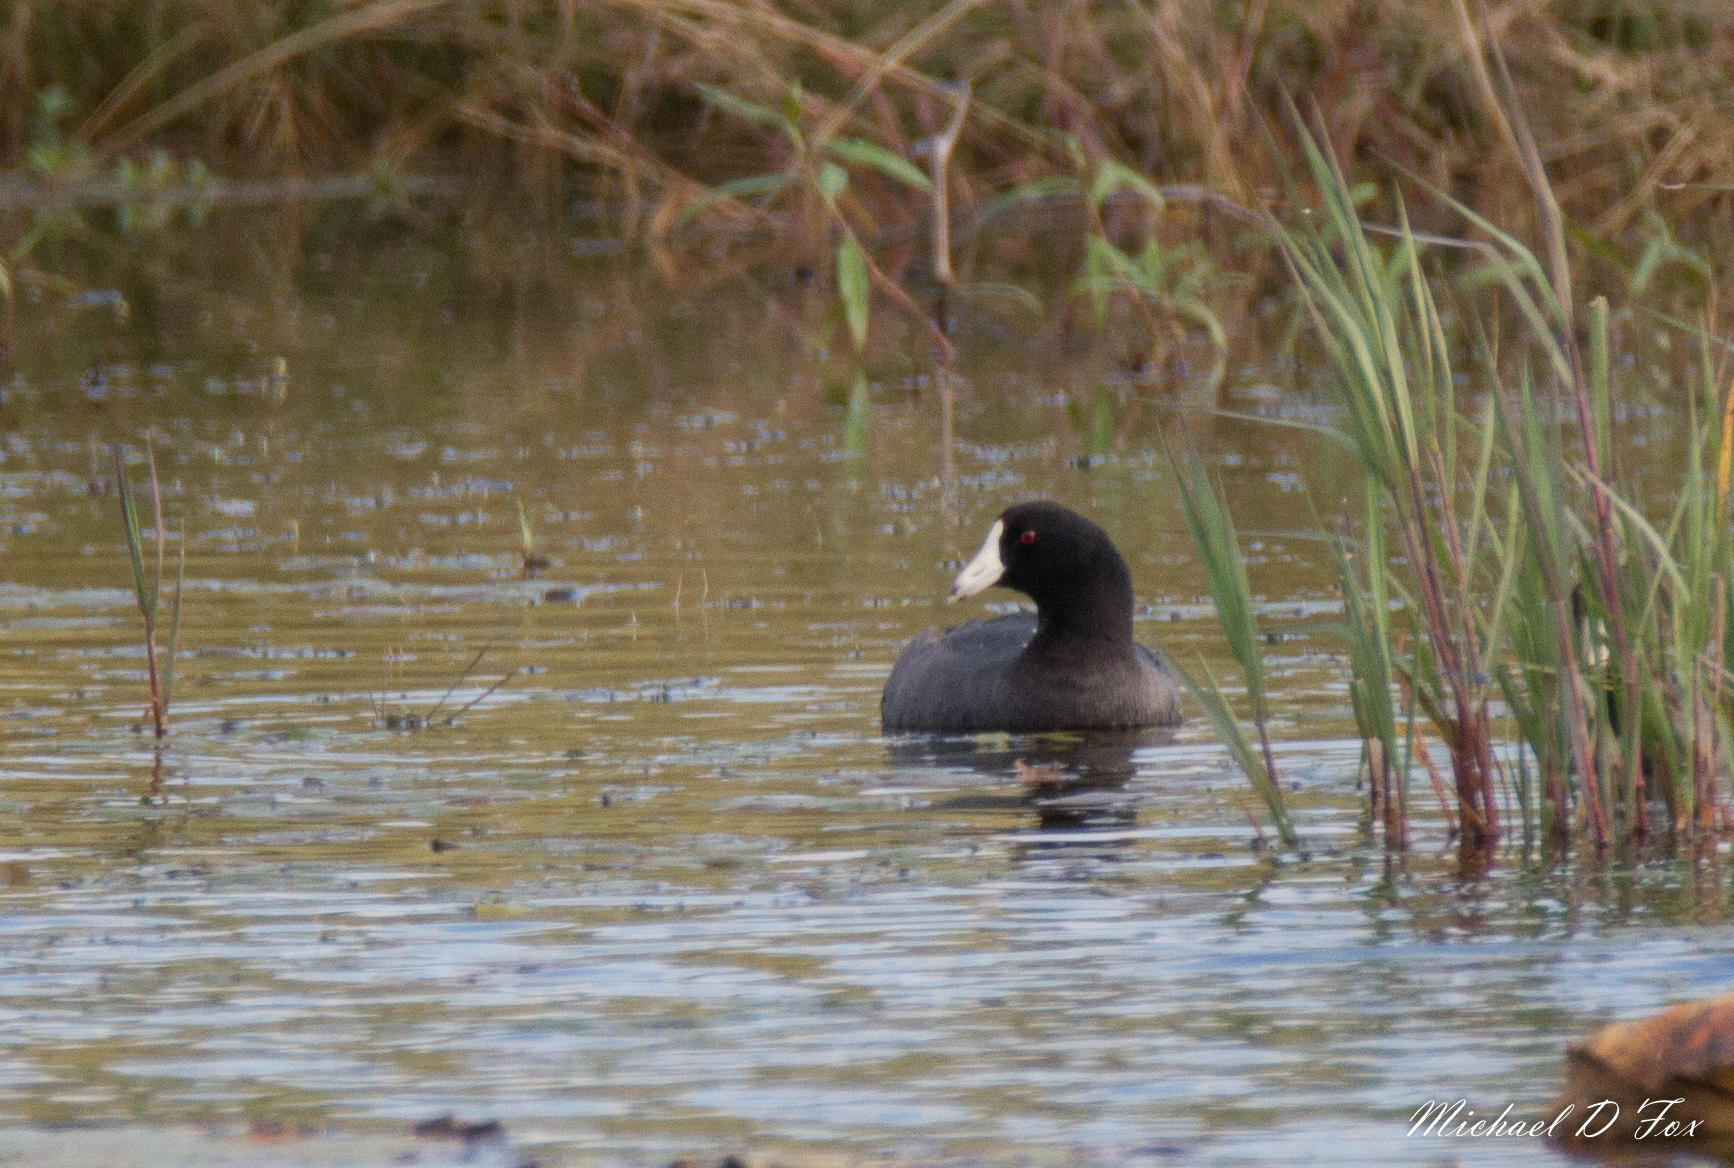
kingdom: Animalia
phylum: Chordata
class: Aves
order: Gruiformes
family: Rallidae
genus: Fulica
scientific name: Fulica americana
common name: American coot
